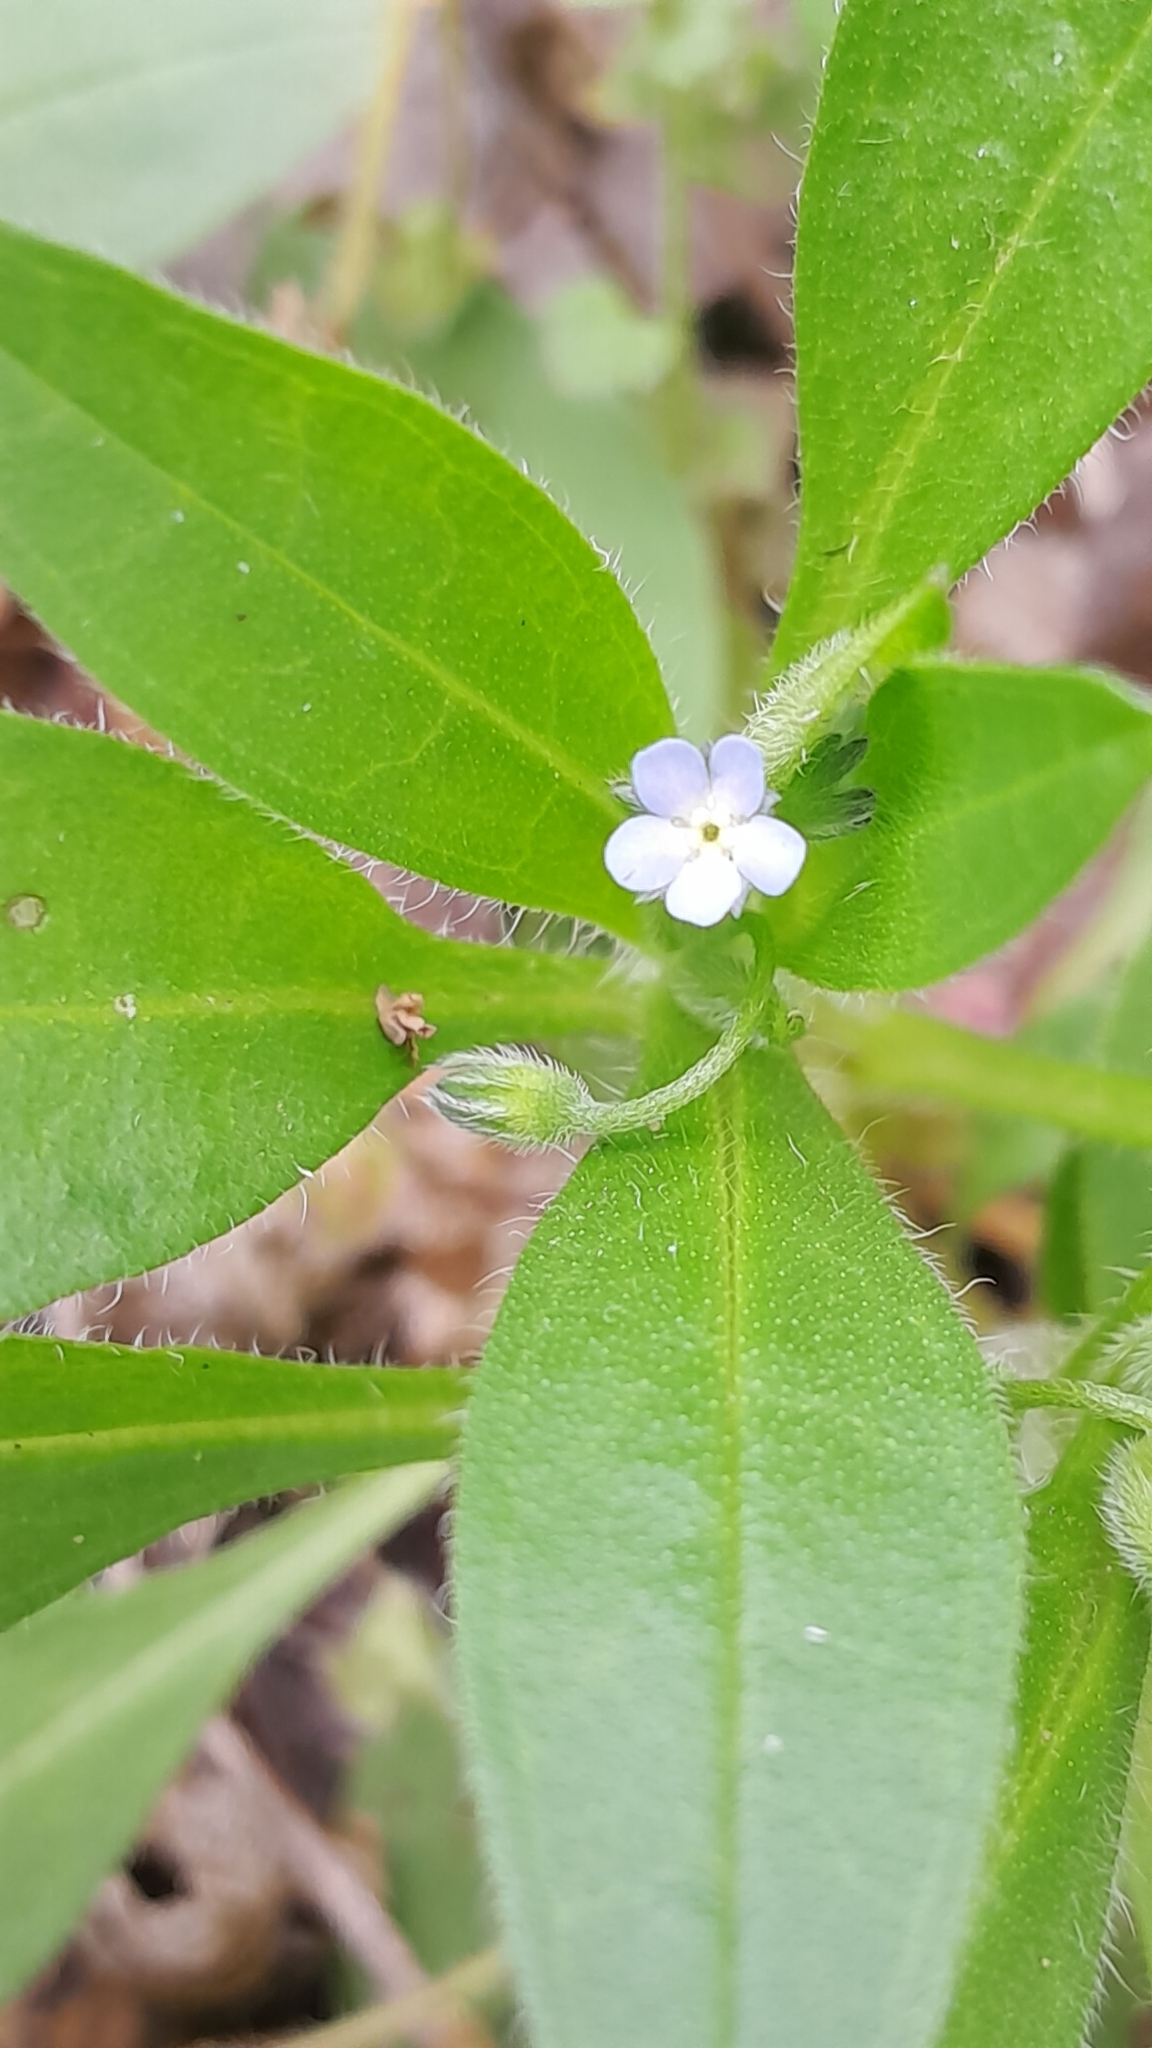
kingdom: Plantae
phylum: Tracheophyta
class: Magnoliopsida
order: Boraginales
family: Boraginaceae
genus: Myosotis
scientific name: Myosotis sparsiflora
